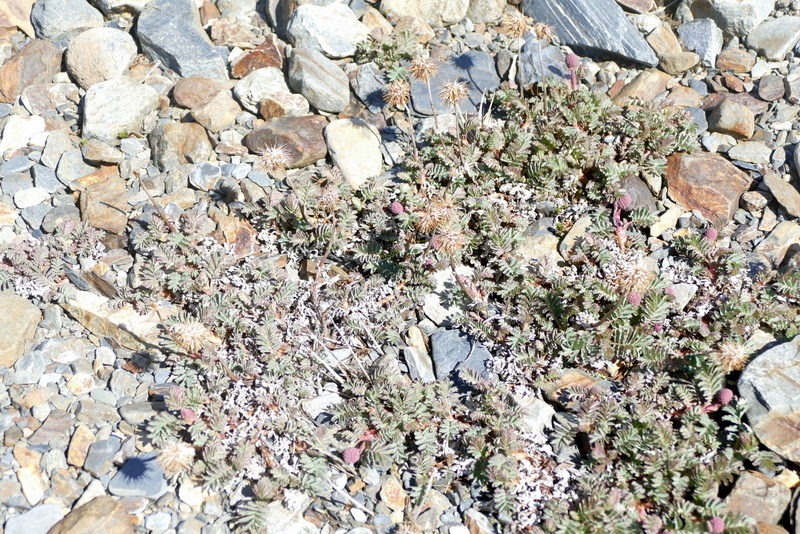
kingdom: Plantae
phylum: Tracheophyta
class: Magnoliopsida
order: Rosales
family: Rosaceae
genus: Acaena
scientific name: Acaena tenera
